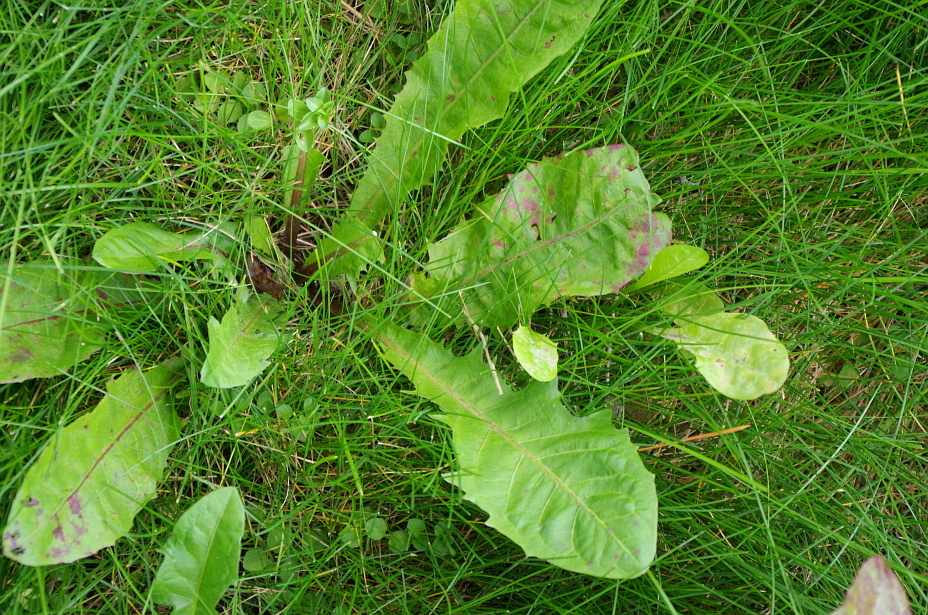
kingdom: Plantae
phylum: Tracheophyta
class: Magnoliopsida
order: Asterales
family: Asteraceae
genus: Taraxacum
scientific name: Taraxacum officinale
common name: Common dandelion
